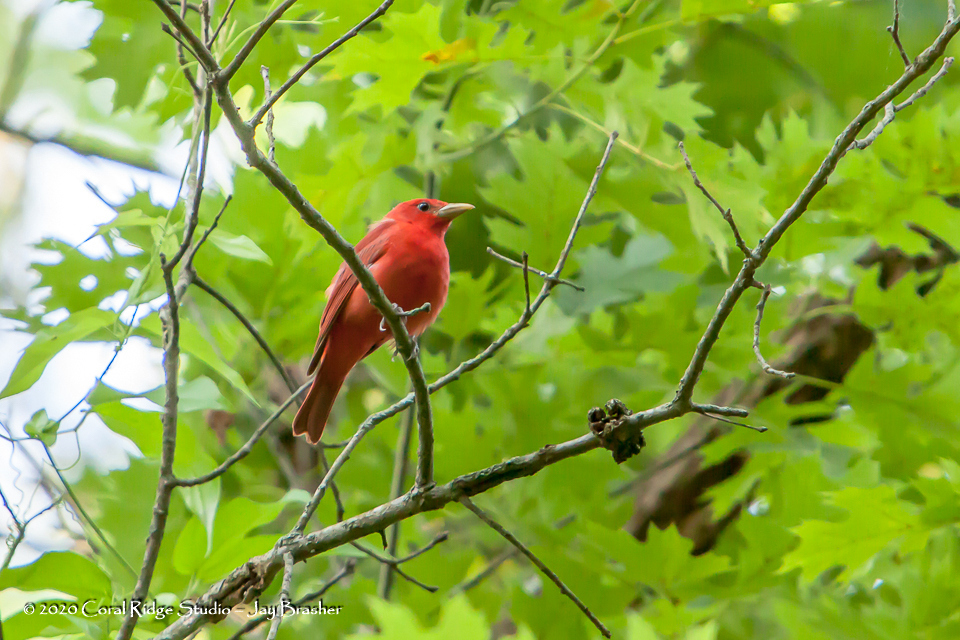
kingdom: Animalia
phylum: Chordata
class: Aves
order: Passeriformes
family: Cardinalidae
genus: Piranga
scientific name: Piranga rubra
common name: Summer tanager
